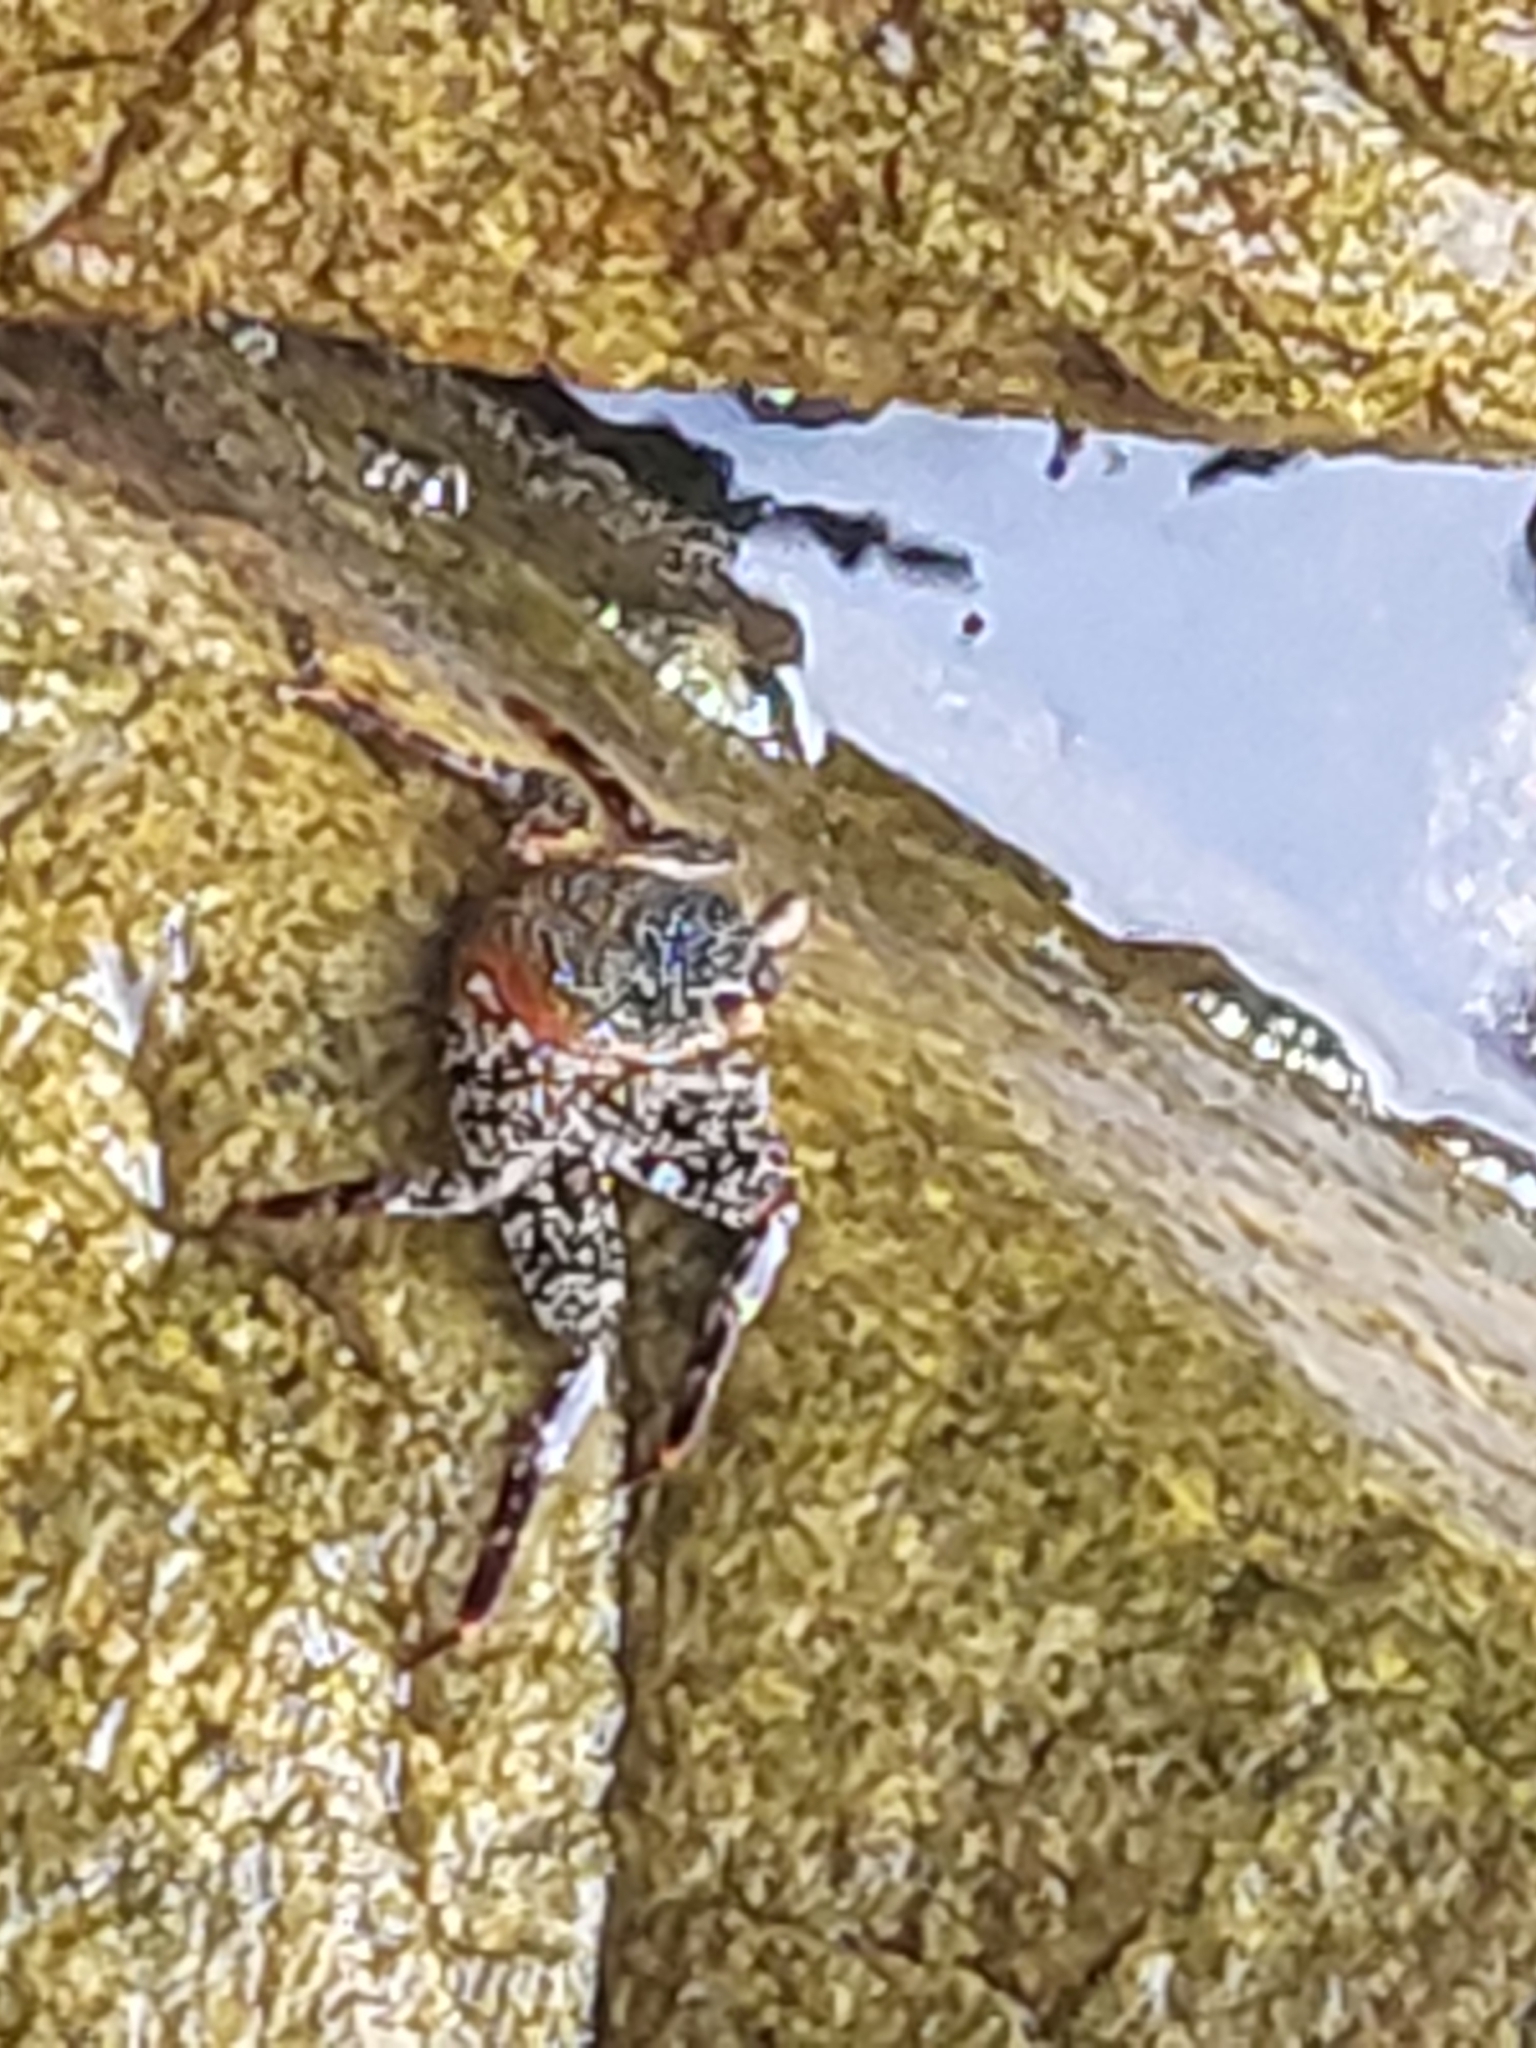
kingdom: Animalia
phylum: Arthropoda
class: Malacostraca
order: Decapoda
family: Grapsidae
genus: Grapsus
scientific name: Grapsus grapsus
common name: Sally lightfoot
